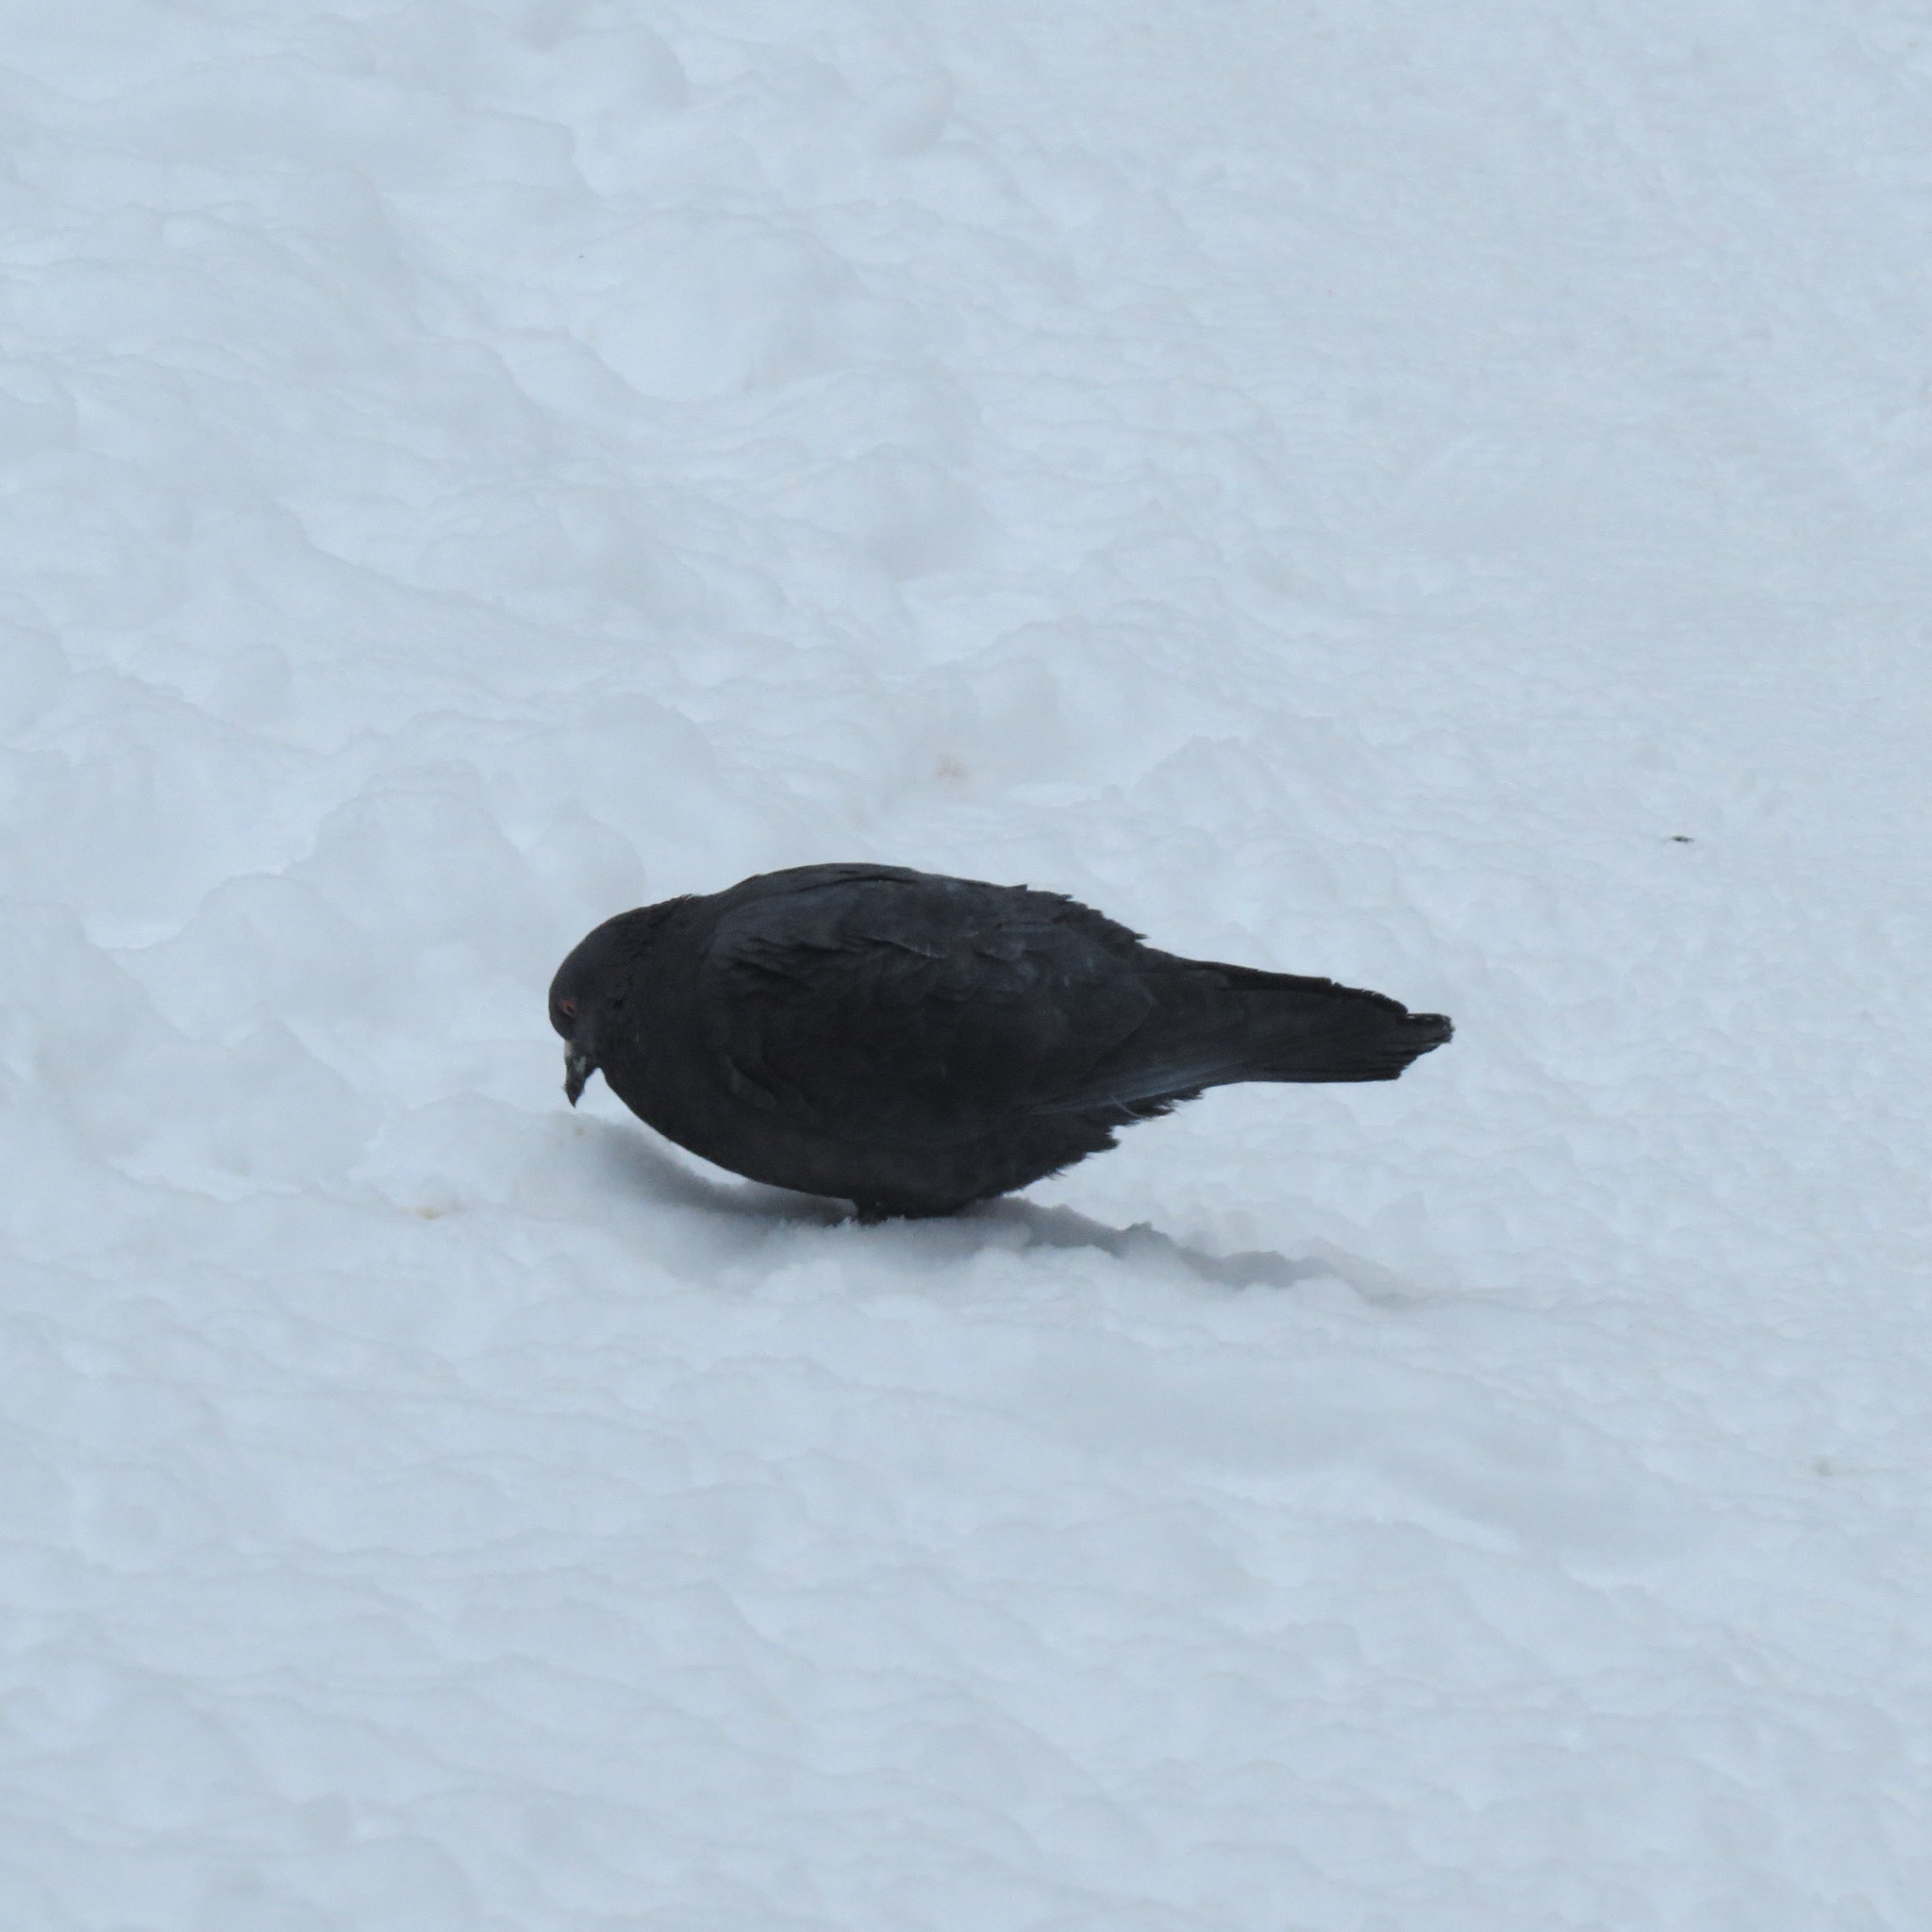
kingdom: Animalia
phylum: Chordata
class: Aves
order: Columbiformes
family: Columbidae
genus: Columba
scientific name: Columba livia
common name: Rock pigeon
